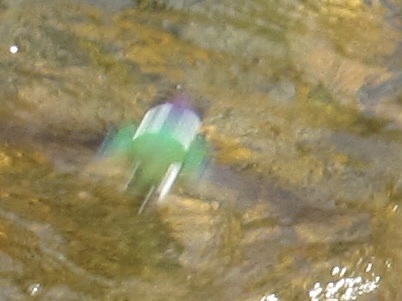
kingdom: Animalia
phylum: Chordata
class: Aves
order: Passeriformes
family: Hirundinidae
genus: Tachycineta
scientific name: Tachycineta thalassina
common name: Violet-green swallow
